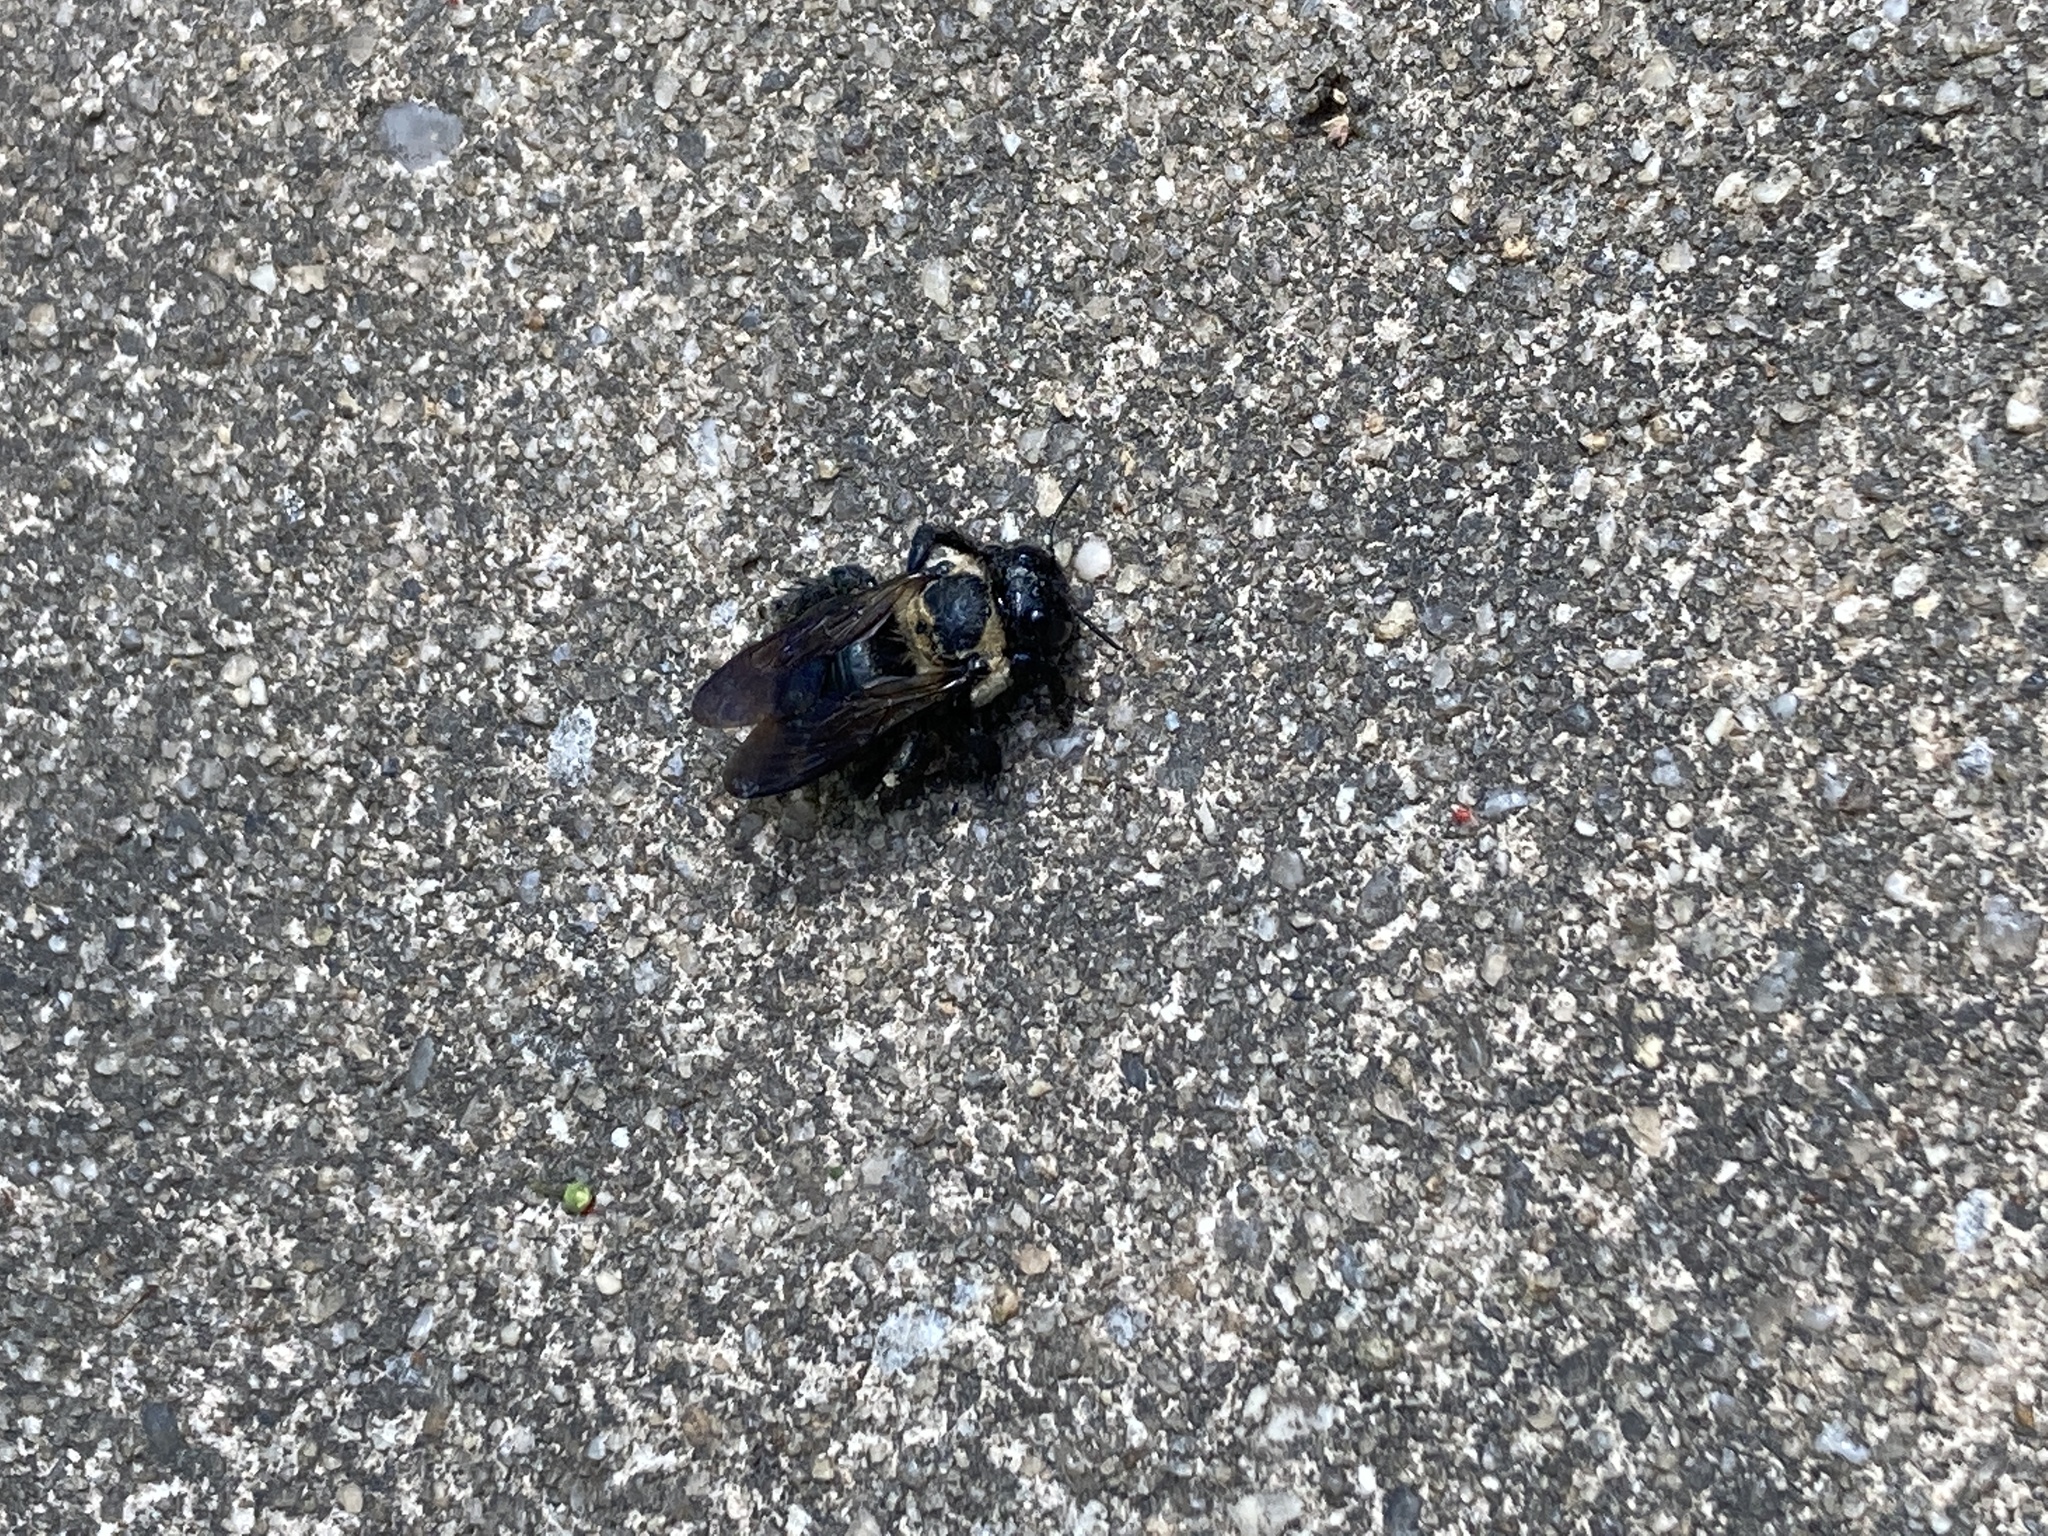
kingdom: Animalia
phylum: Arthropoda
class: Insecta
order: Hymenoptera
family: Apidae
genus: Xylocopa
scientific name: Xylocopa virginica
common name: Carpenter bee
